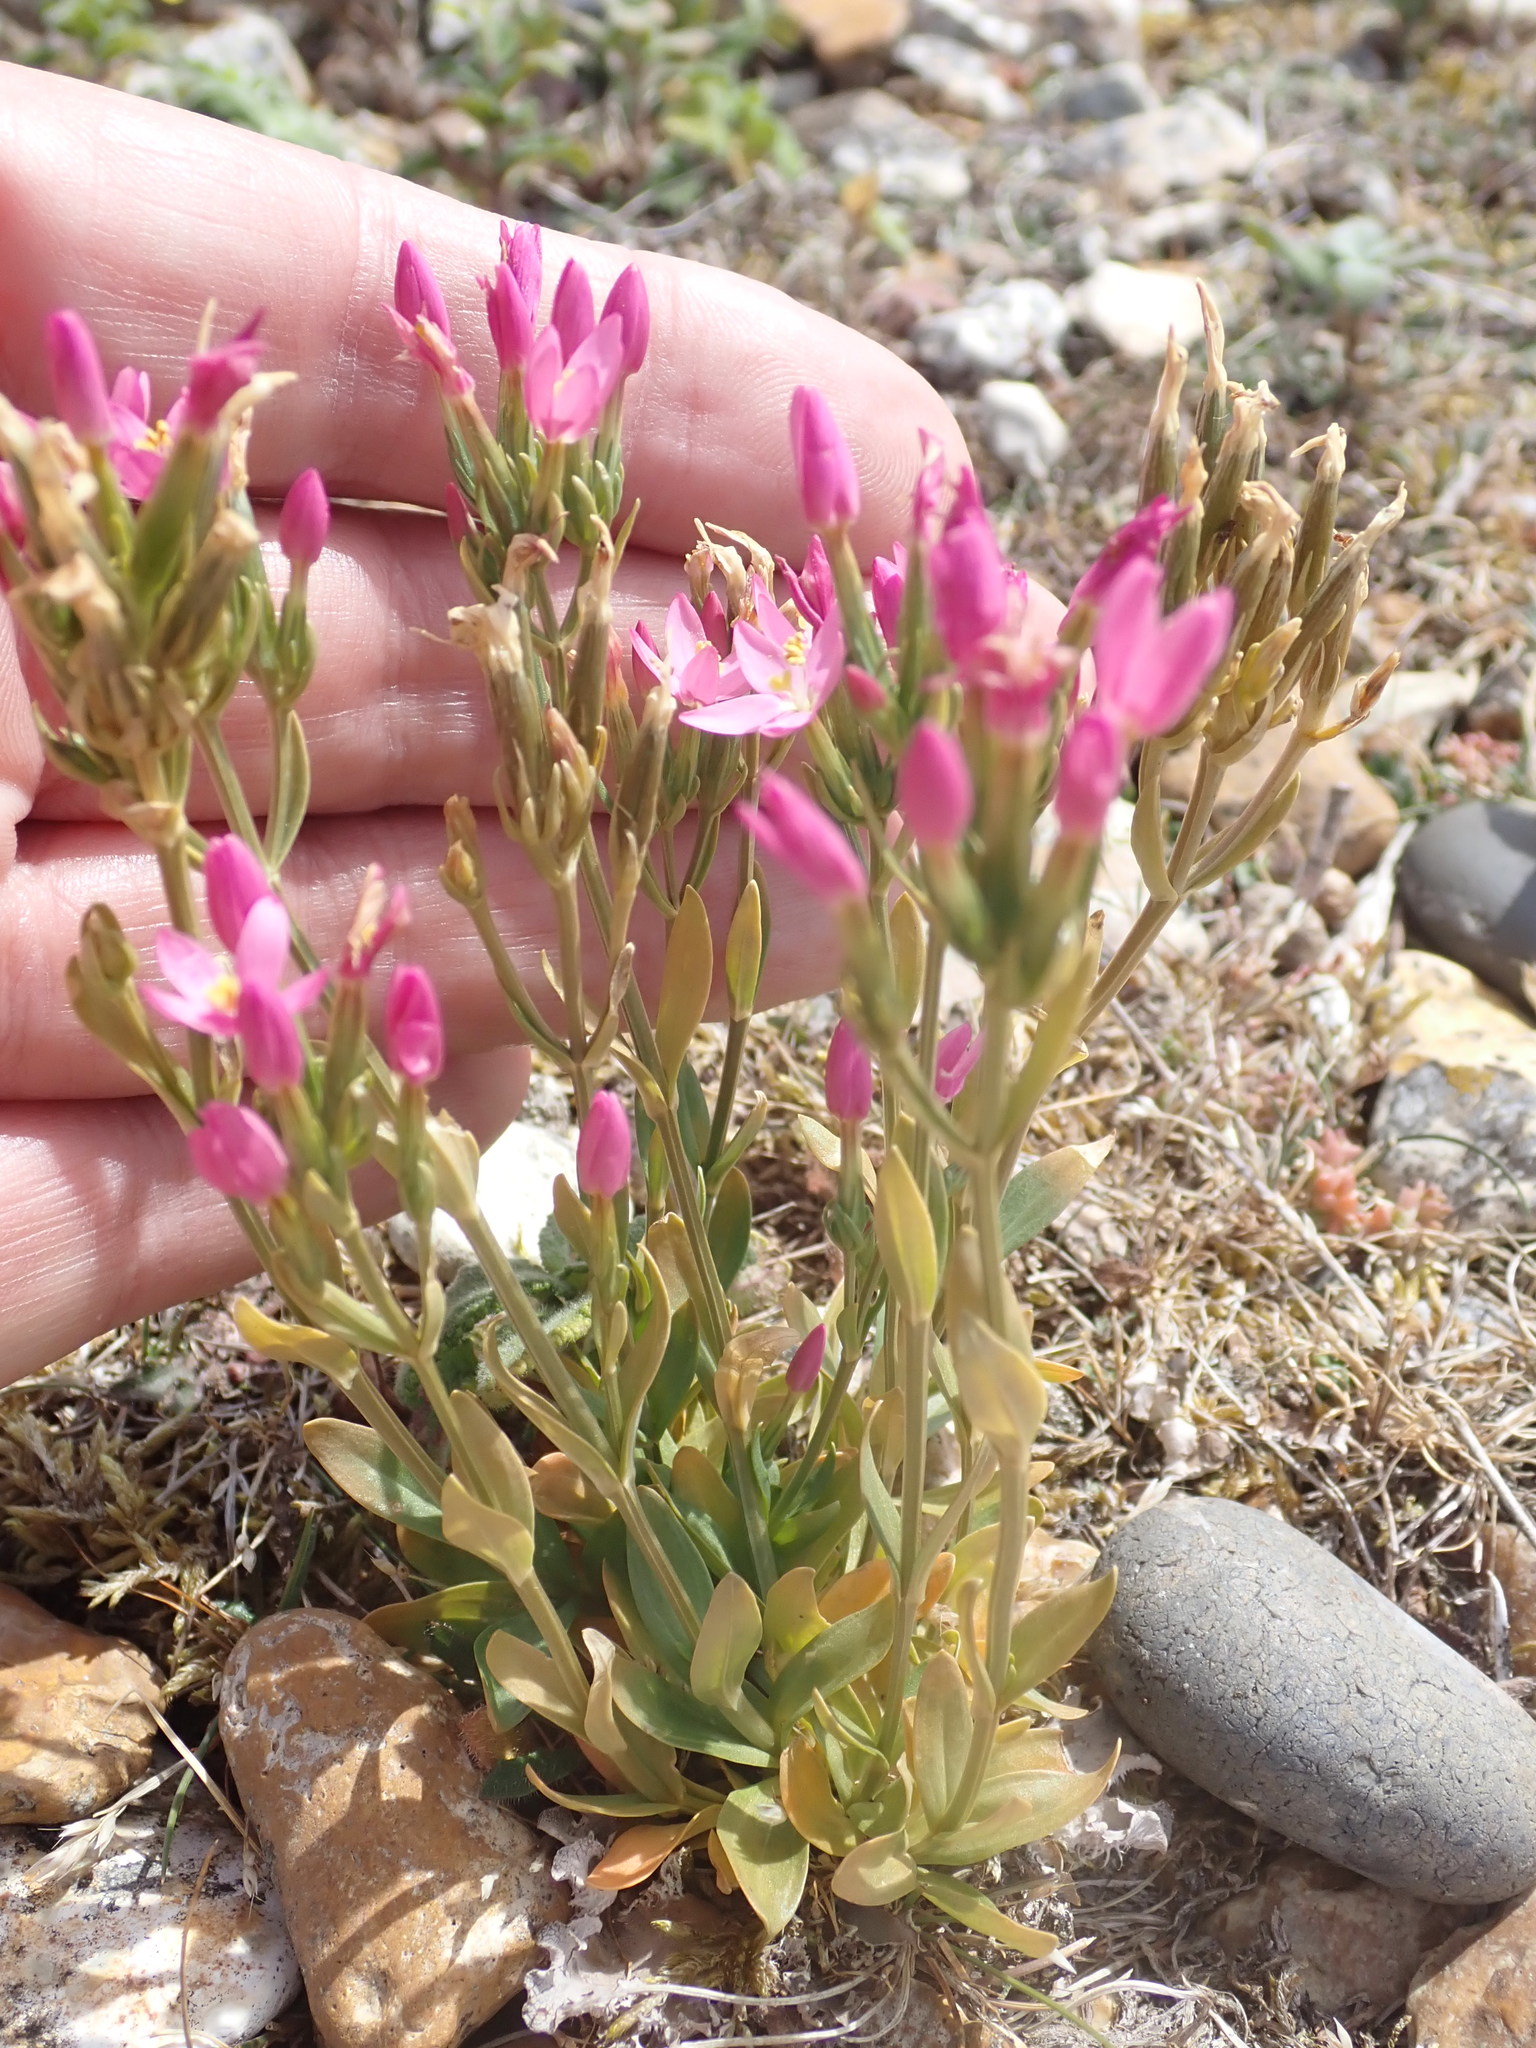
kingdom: Plantae
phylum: Tracheophyta
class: Magnoliopsida
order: Gentianales
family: Gentianaceae
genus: Centaurium
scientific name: Centaurium erythraea
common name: Common centaury
